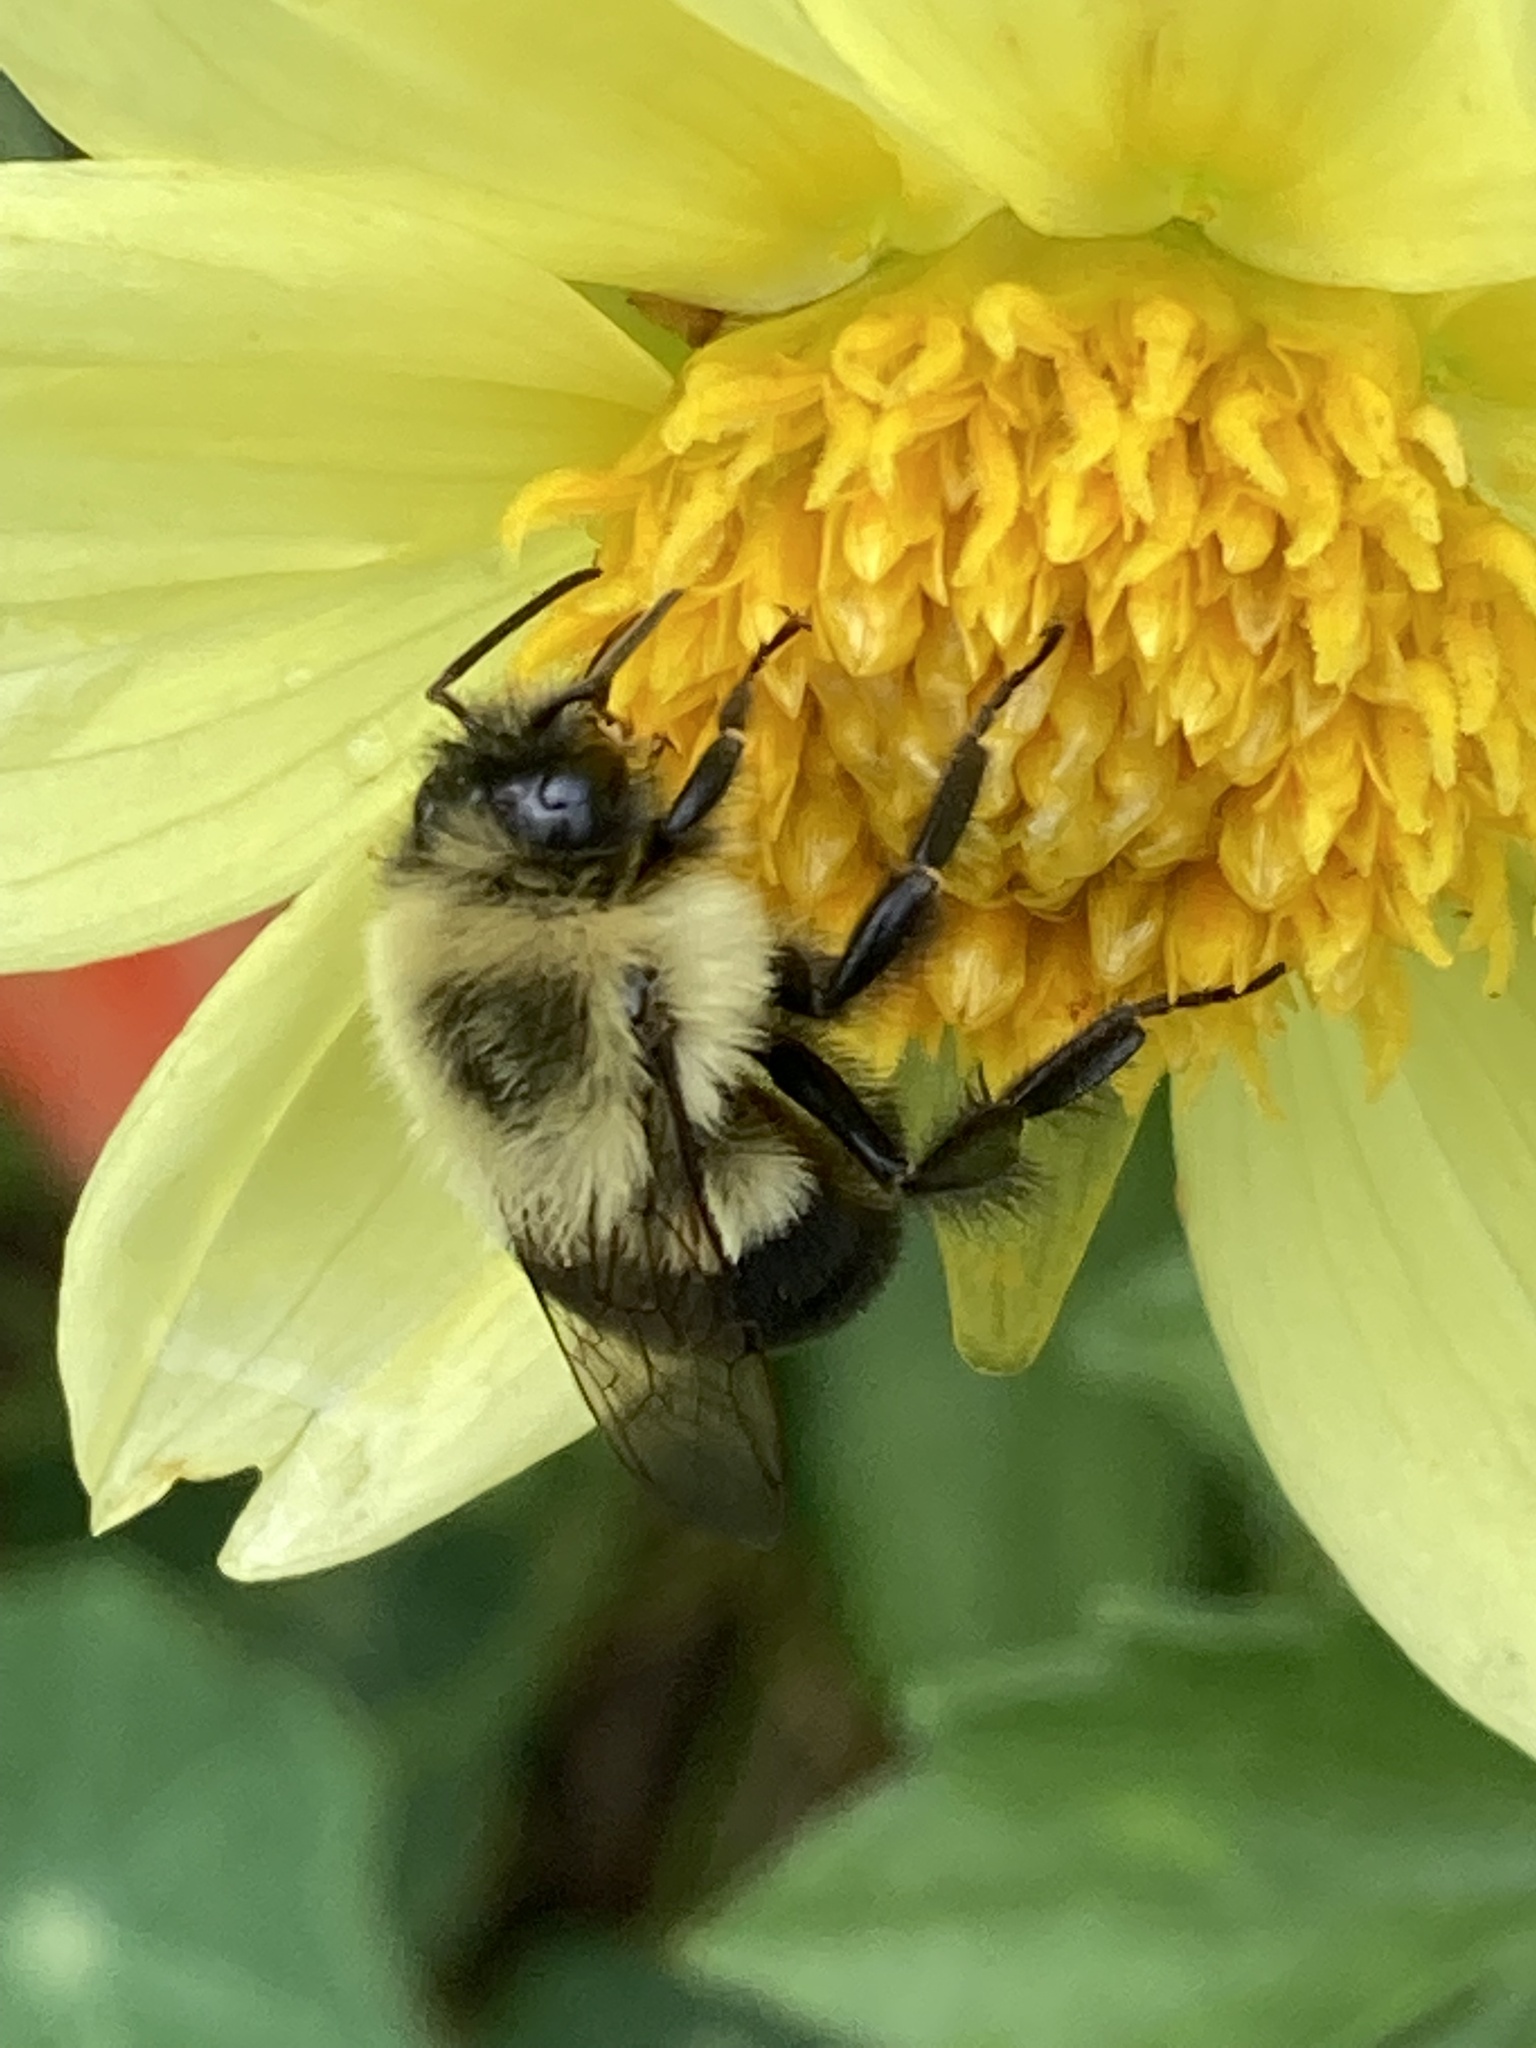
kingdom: Animalia
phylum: Arthropoda
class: Insecta
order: Hymenoptera
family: Apidae
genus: Bombus
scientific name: Bombus impatiens
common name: Common eastern bumble bee
